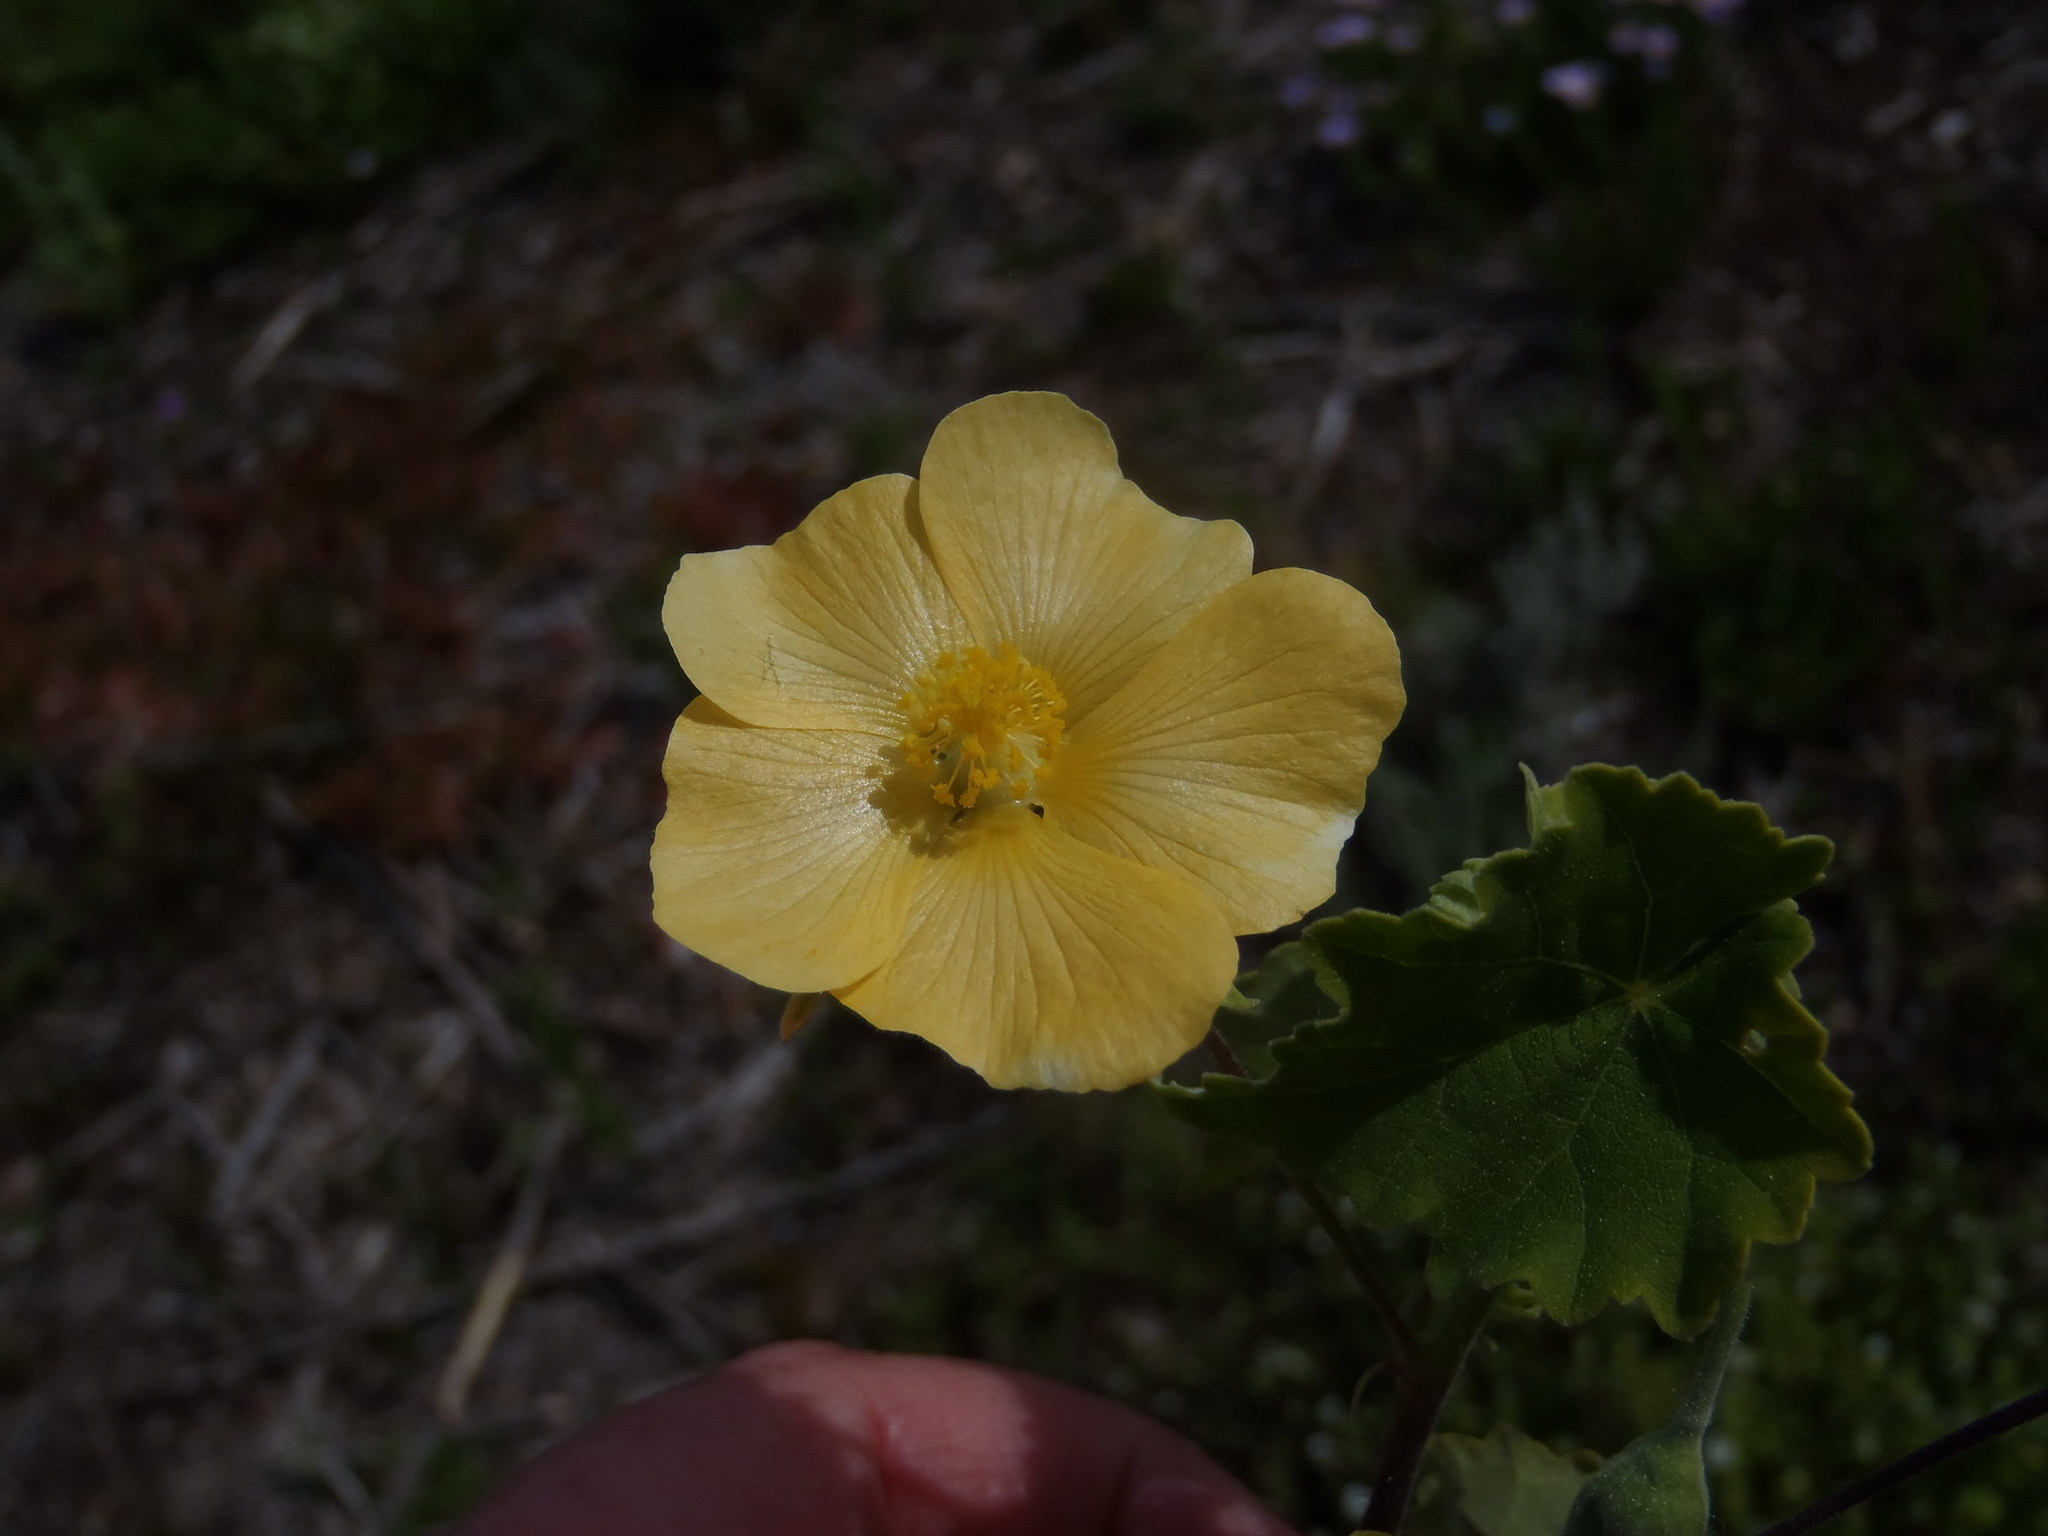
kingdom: Plantae
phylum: Tracheophyta
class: Magnoliopsida
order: Malvales
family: Malvaceae
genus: Abutilon
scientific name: Abutilon sonneratianum
